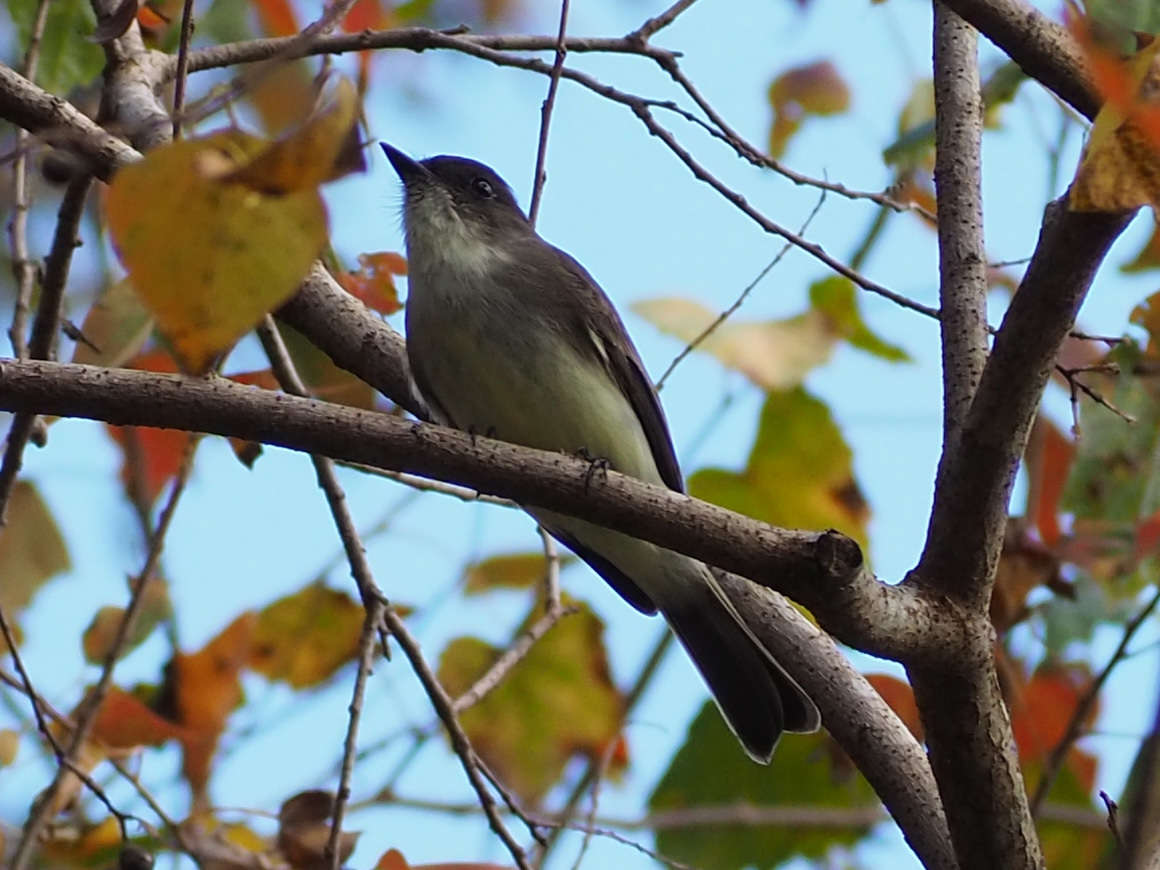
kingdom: Animalia
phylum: Chordata
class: Aves
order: Passeriformes
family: Tyrannidae
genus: Sayornis
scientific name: Sayornis phoebe
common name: Eastern phoebe
